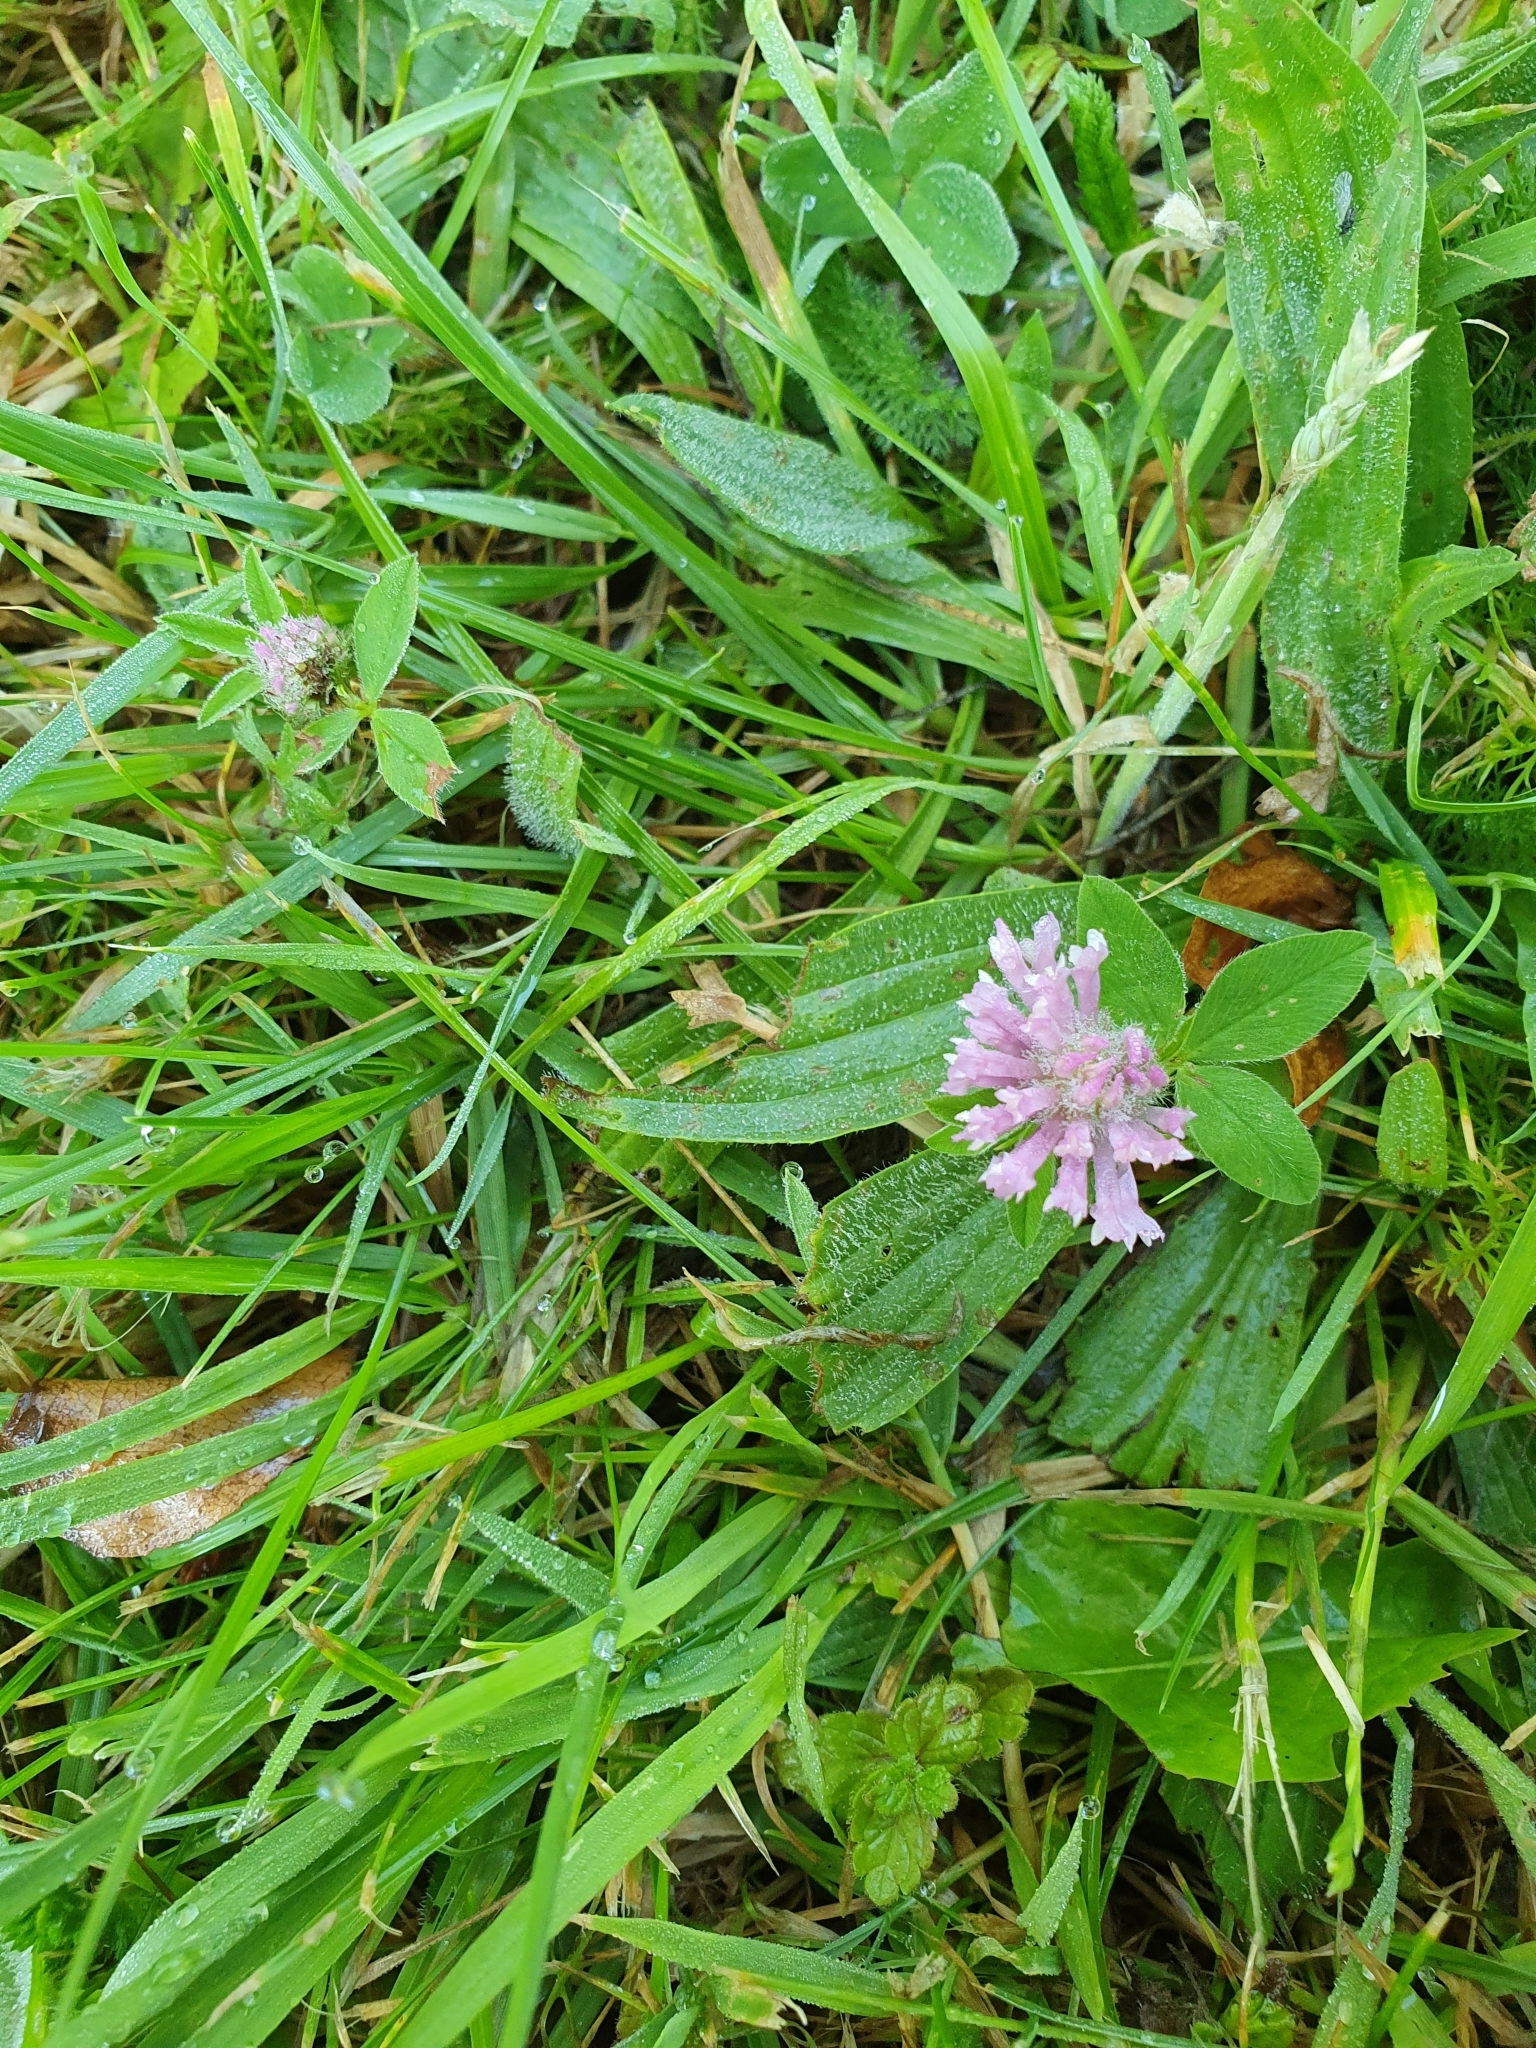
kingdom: Plantae
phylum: Tracheophyta
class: Magnoliopsida
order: Fabales
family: Fabaceae
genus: Trifolium
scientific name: Trifolium pratense
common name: Red clover
